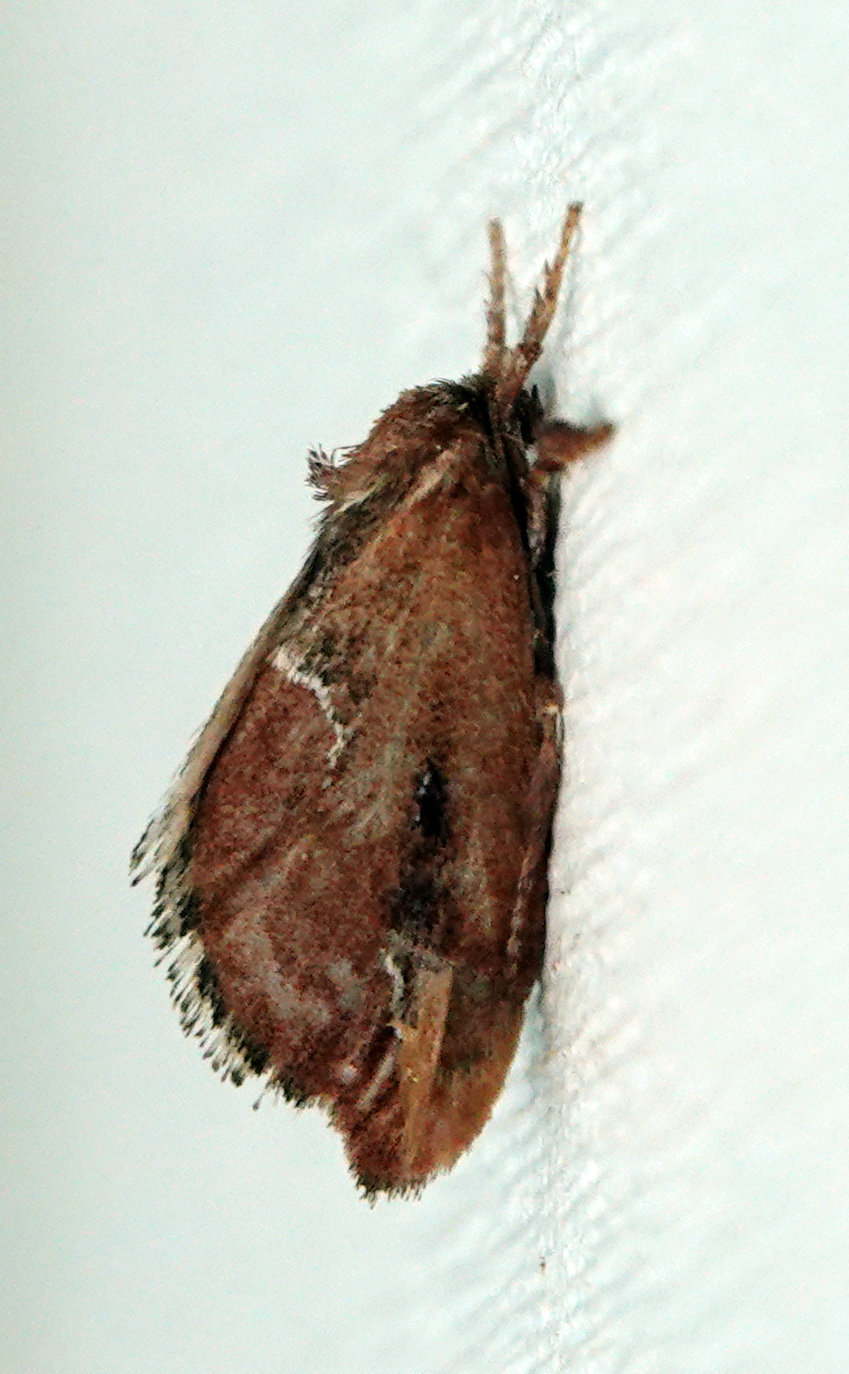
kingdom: Animalia
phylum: Arthropoda
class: Insecta
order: Lepidoptera
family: Limacodidae
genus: Adoneta
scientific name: Adoneta spinuloides
